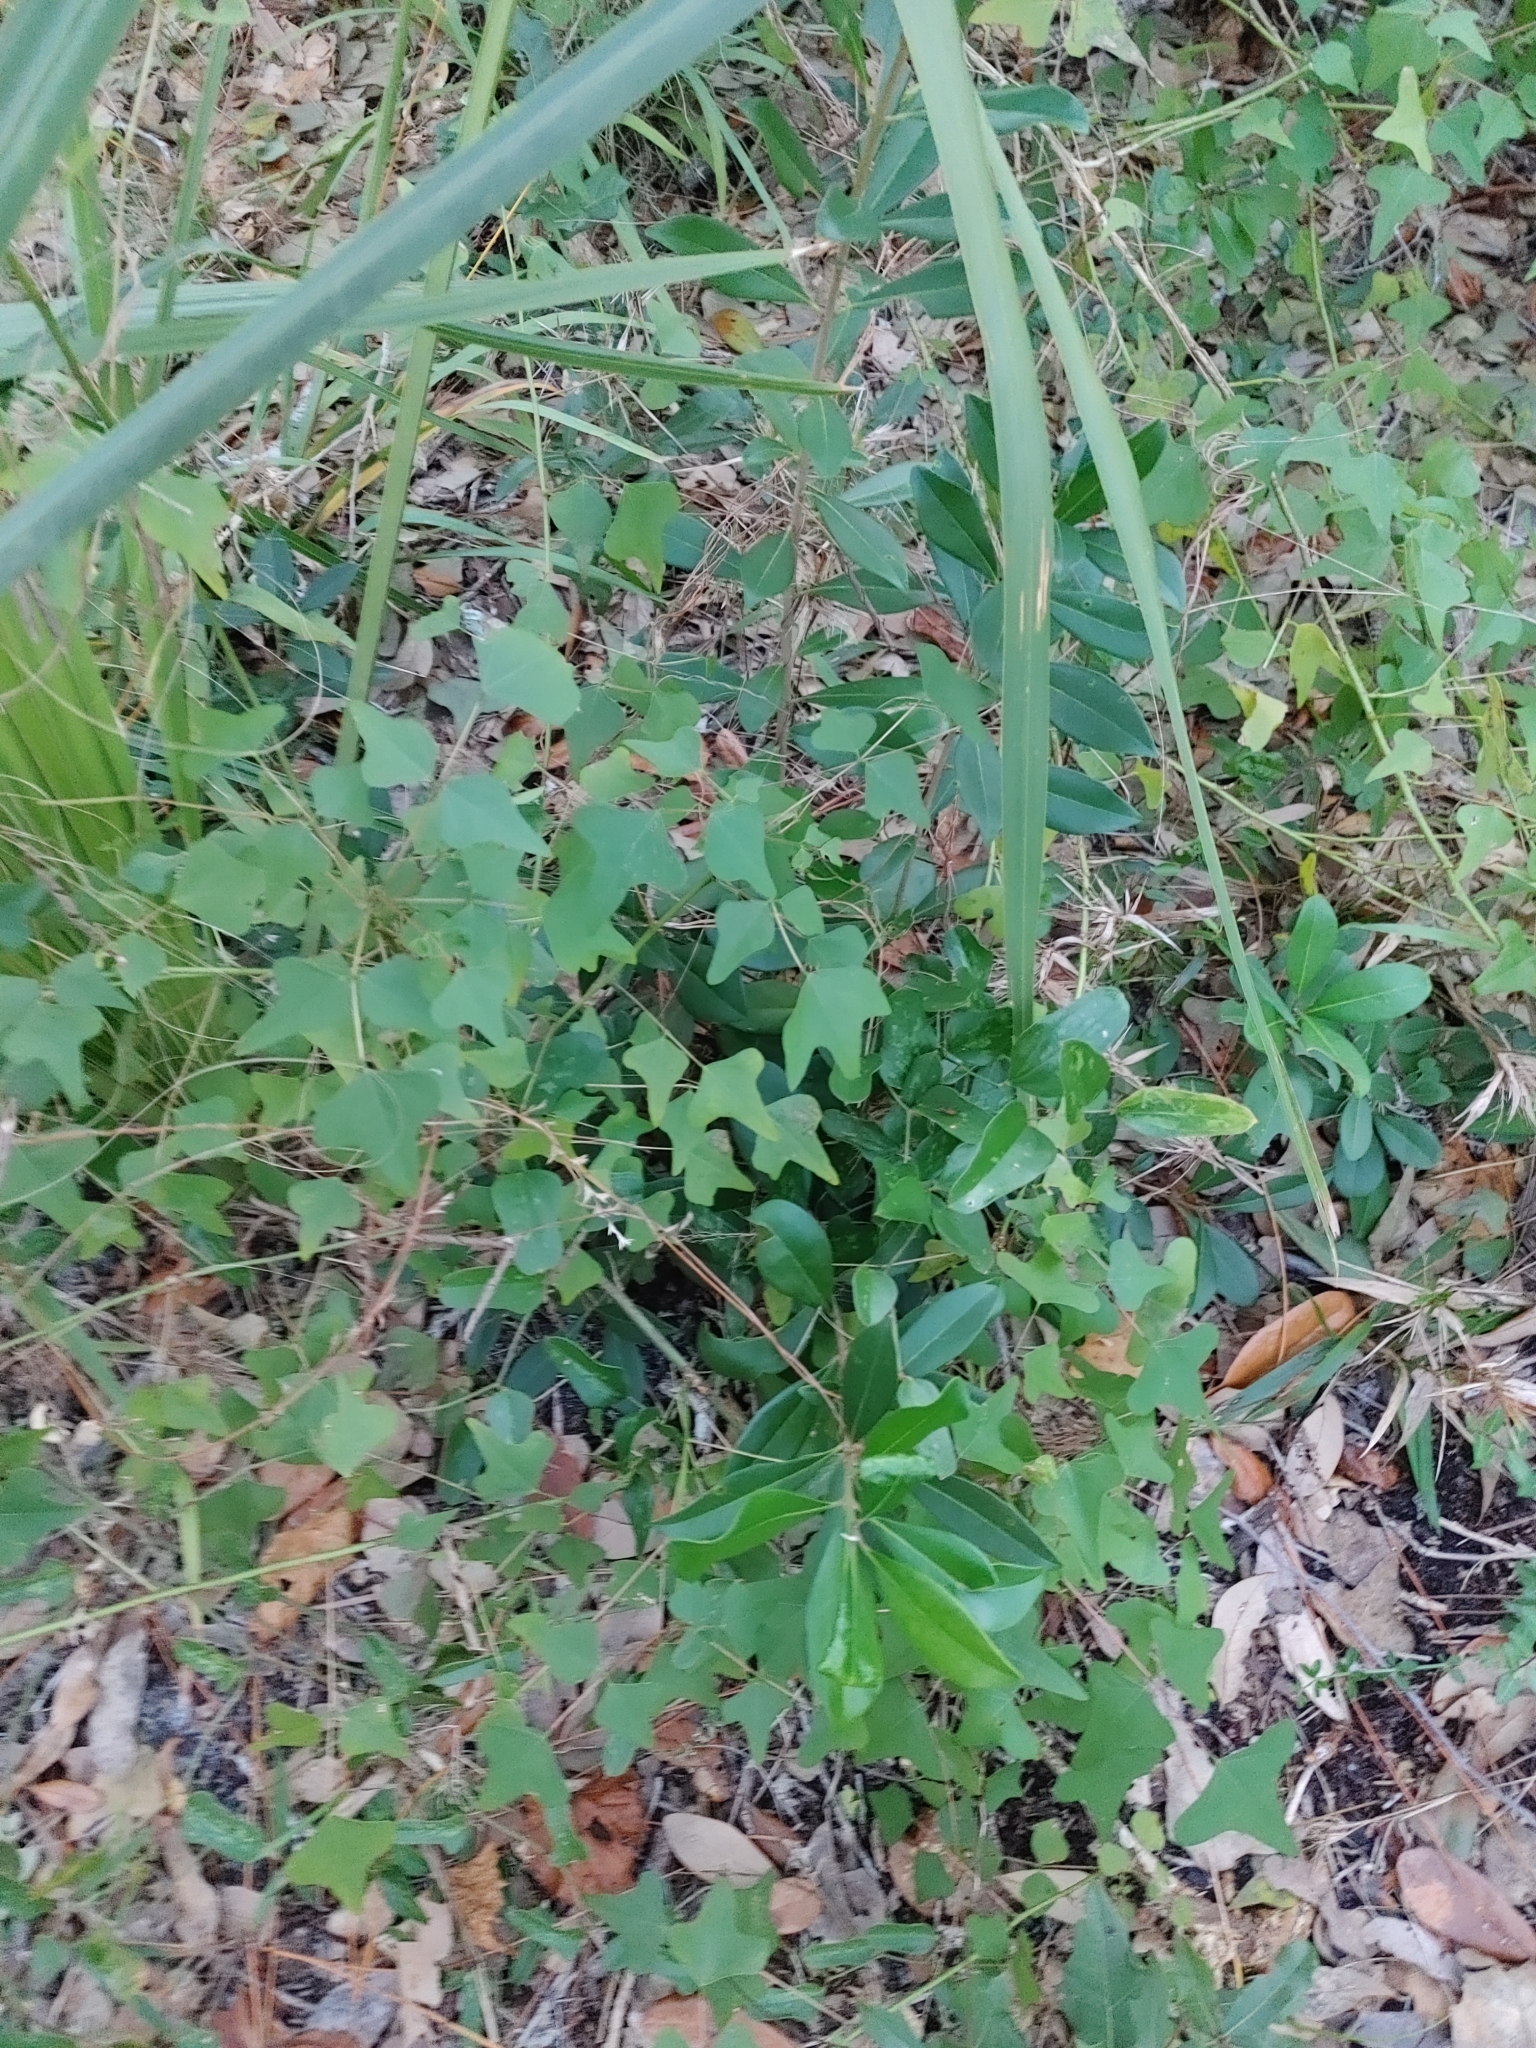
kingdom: Plantae
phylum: Tracheophyta
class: Magnoliopsida
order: Fabales
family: Fabaceae
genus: Erythrina
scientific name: Erythrina herbacea
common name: Coral-bean
